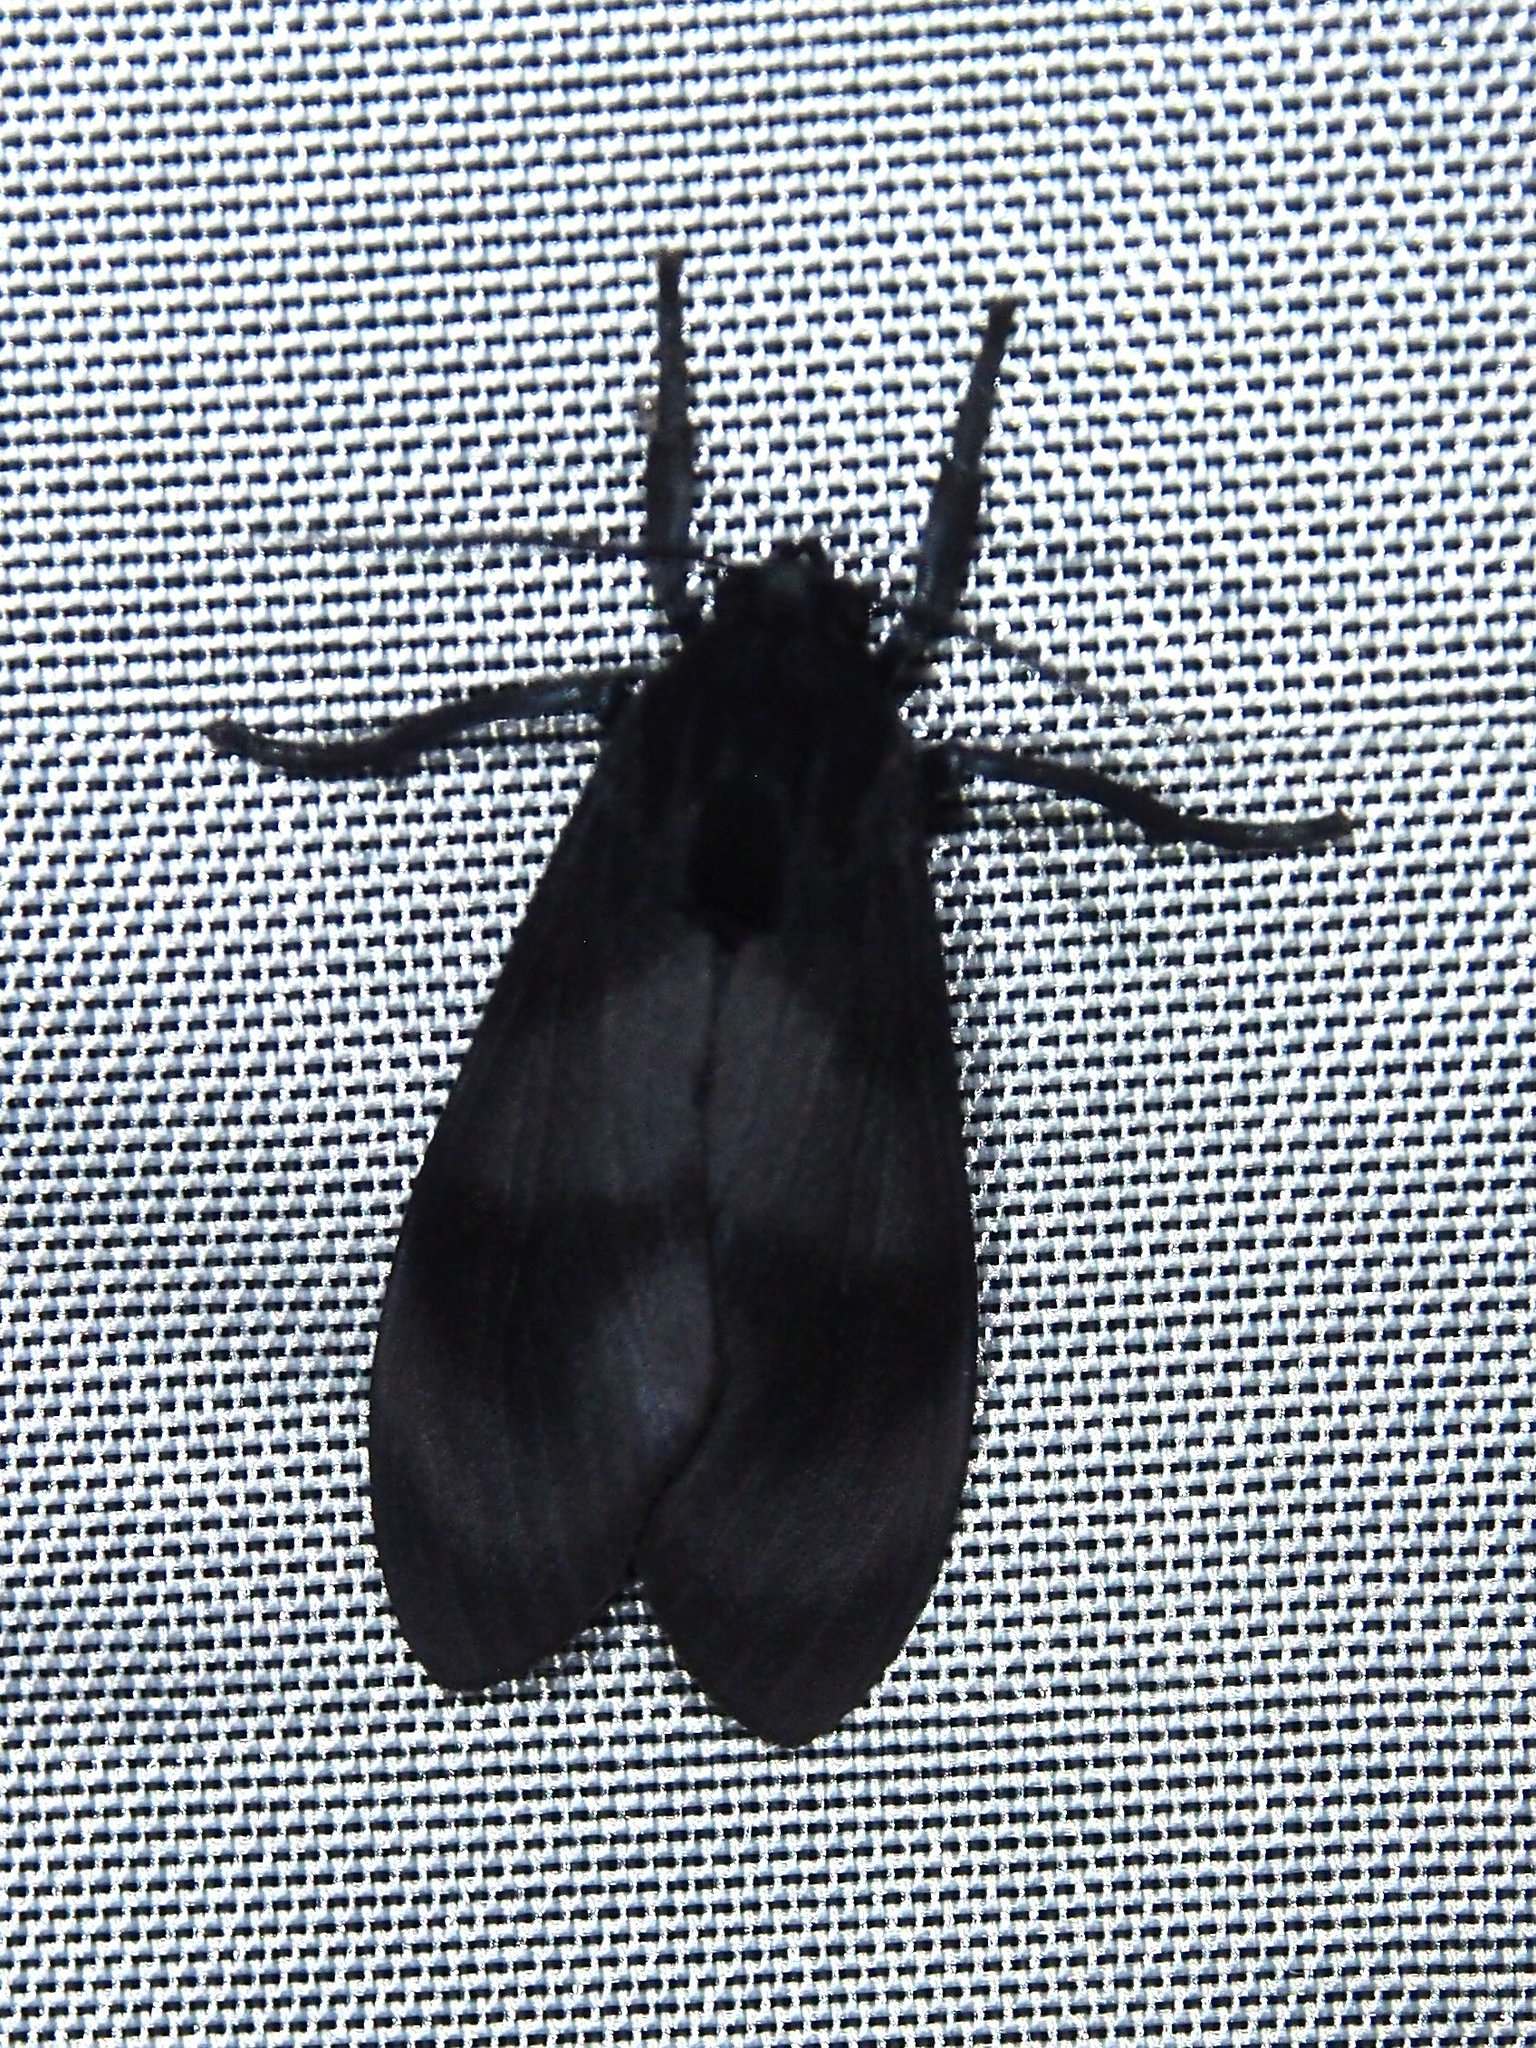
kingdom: Animalia
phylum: Arthropoda
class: Insecta
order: Lepidoptera
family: Erebidae
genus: Thysanoprymna
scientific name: Thysanoprymna haemorrhoides
